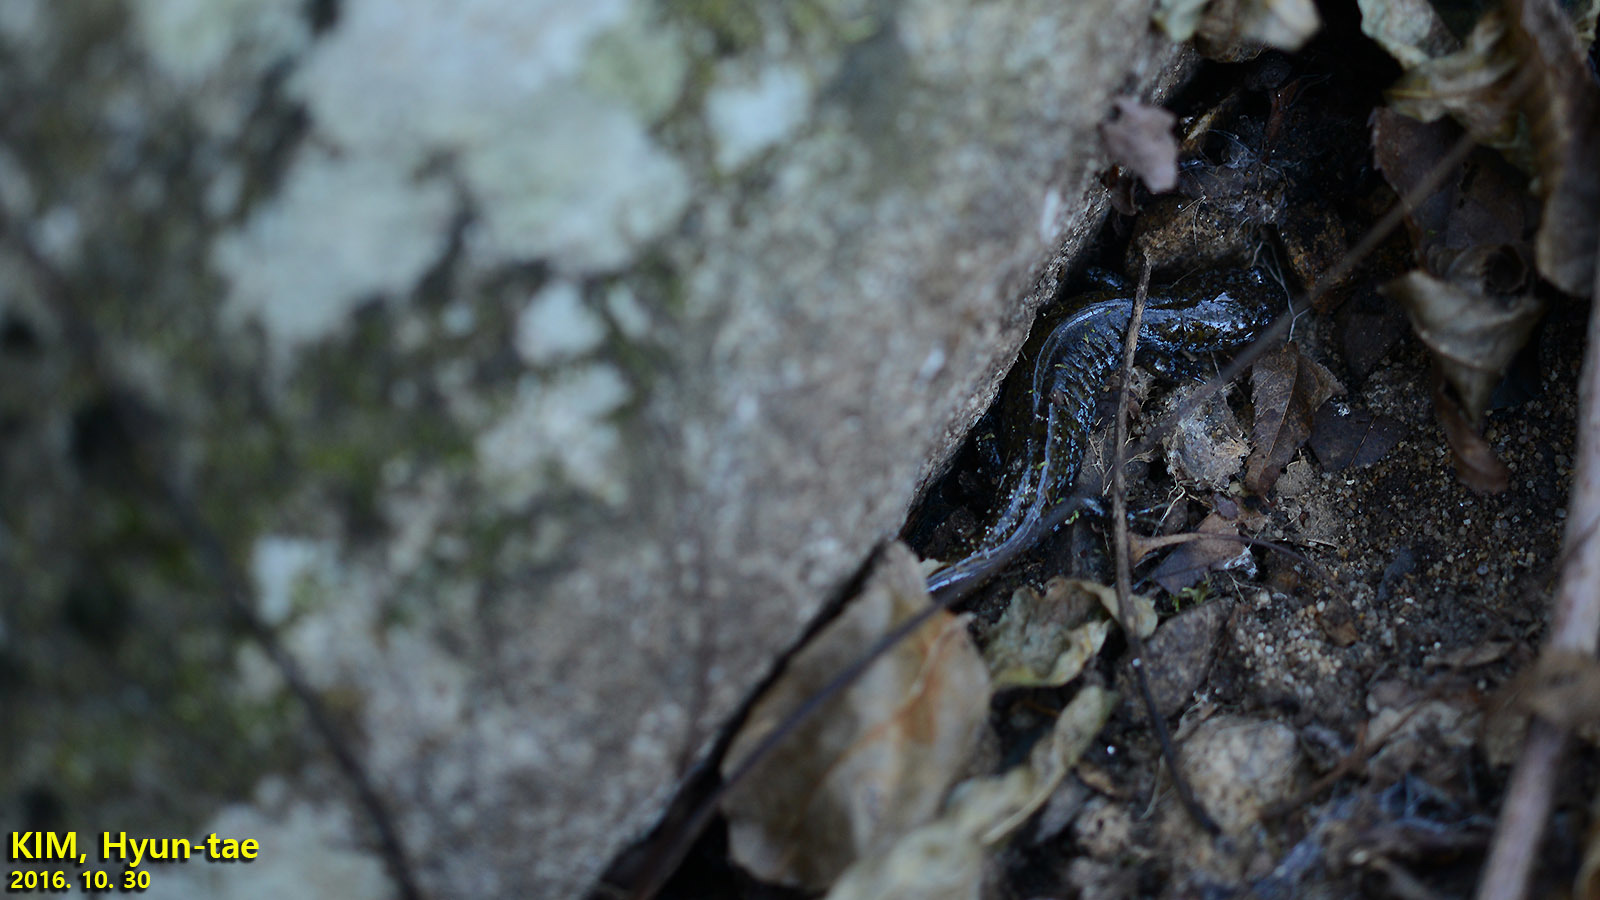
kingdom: Animalia
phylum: Chordata
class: Amphibia
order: Caudata
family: Hynobiidae
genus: Hynobius
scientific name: Hynobius leechii
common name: Gensan salamander
